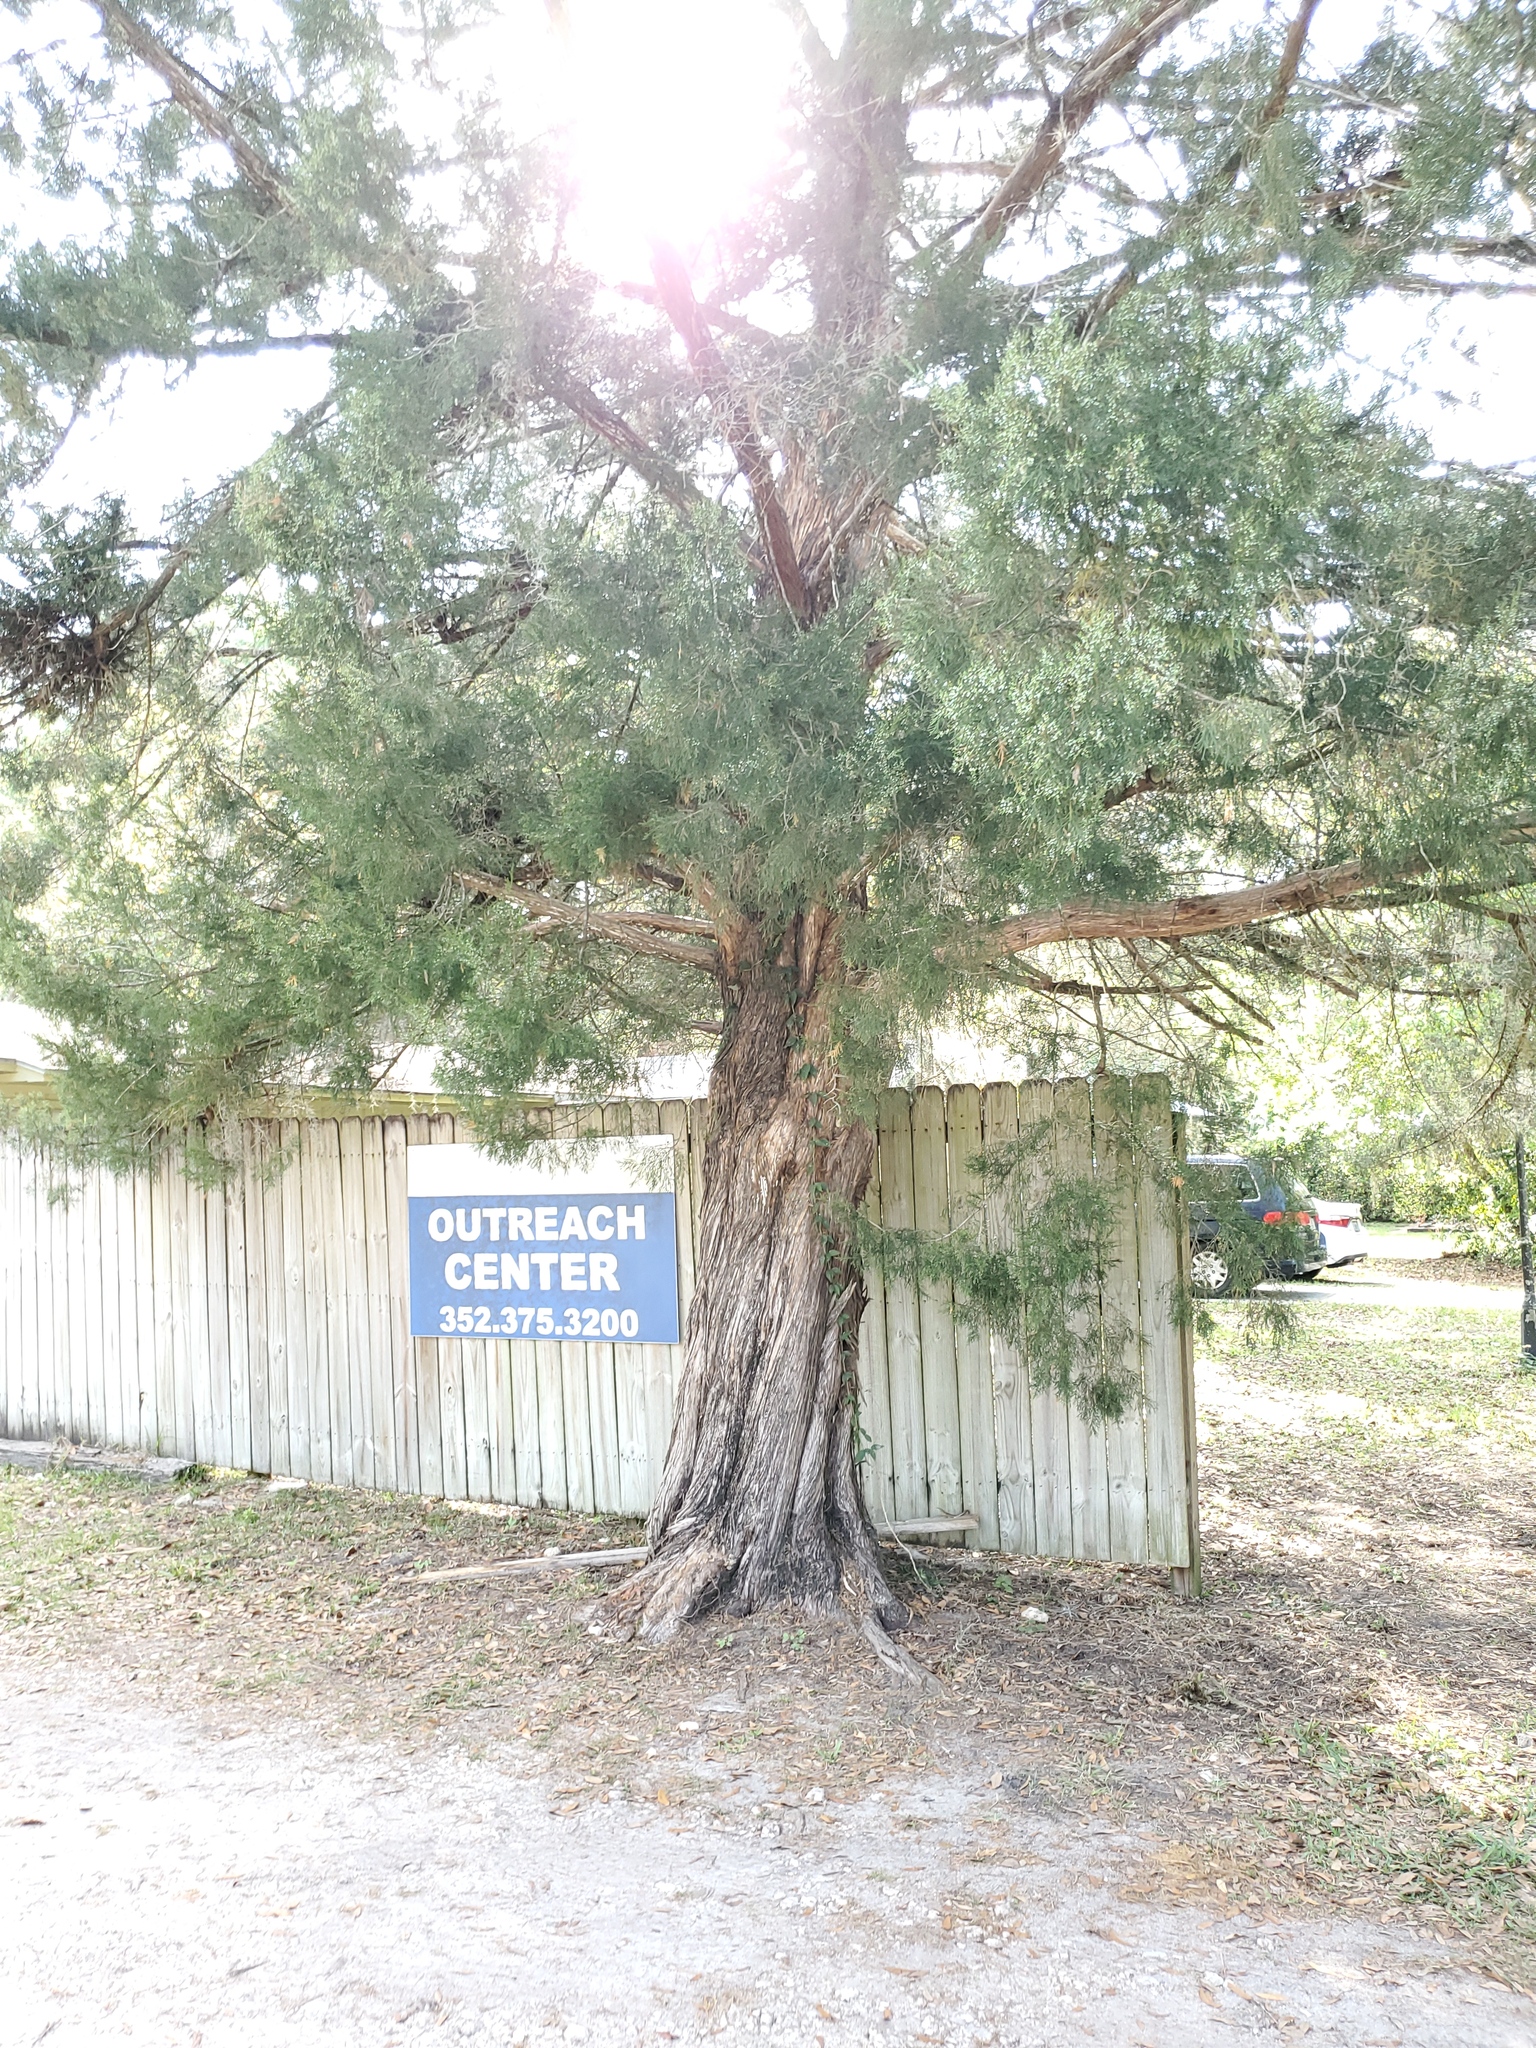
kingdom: Plantae
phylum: Tracheophyta
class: Pinopsida
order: Pinales
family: Cupressaceae
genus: Juniperus
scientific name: Juniperus virginiana
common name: Red juniper
